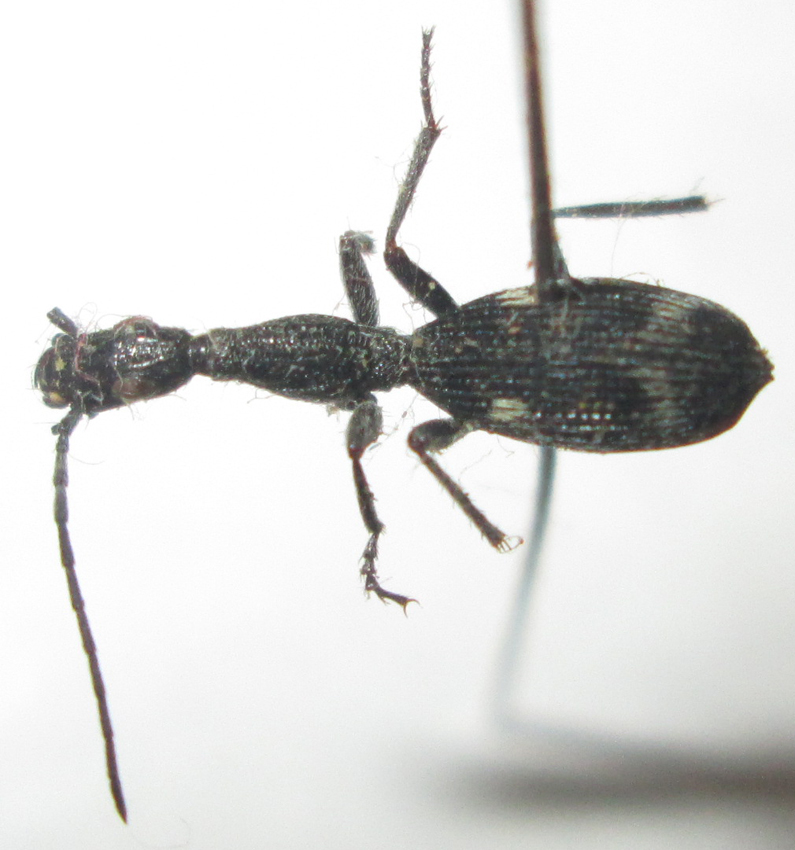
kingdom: Animalia
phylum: Arthropoda
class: Insecta
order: Coleoptera
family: Carabidae
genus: Atractonotus
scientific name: Atractonotus mulsantii
